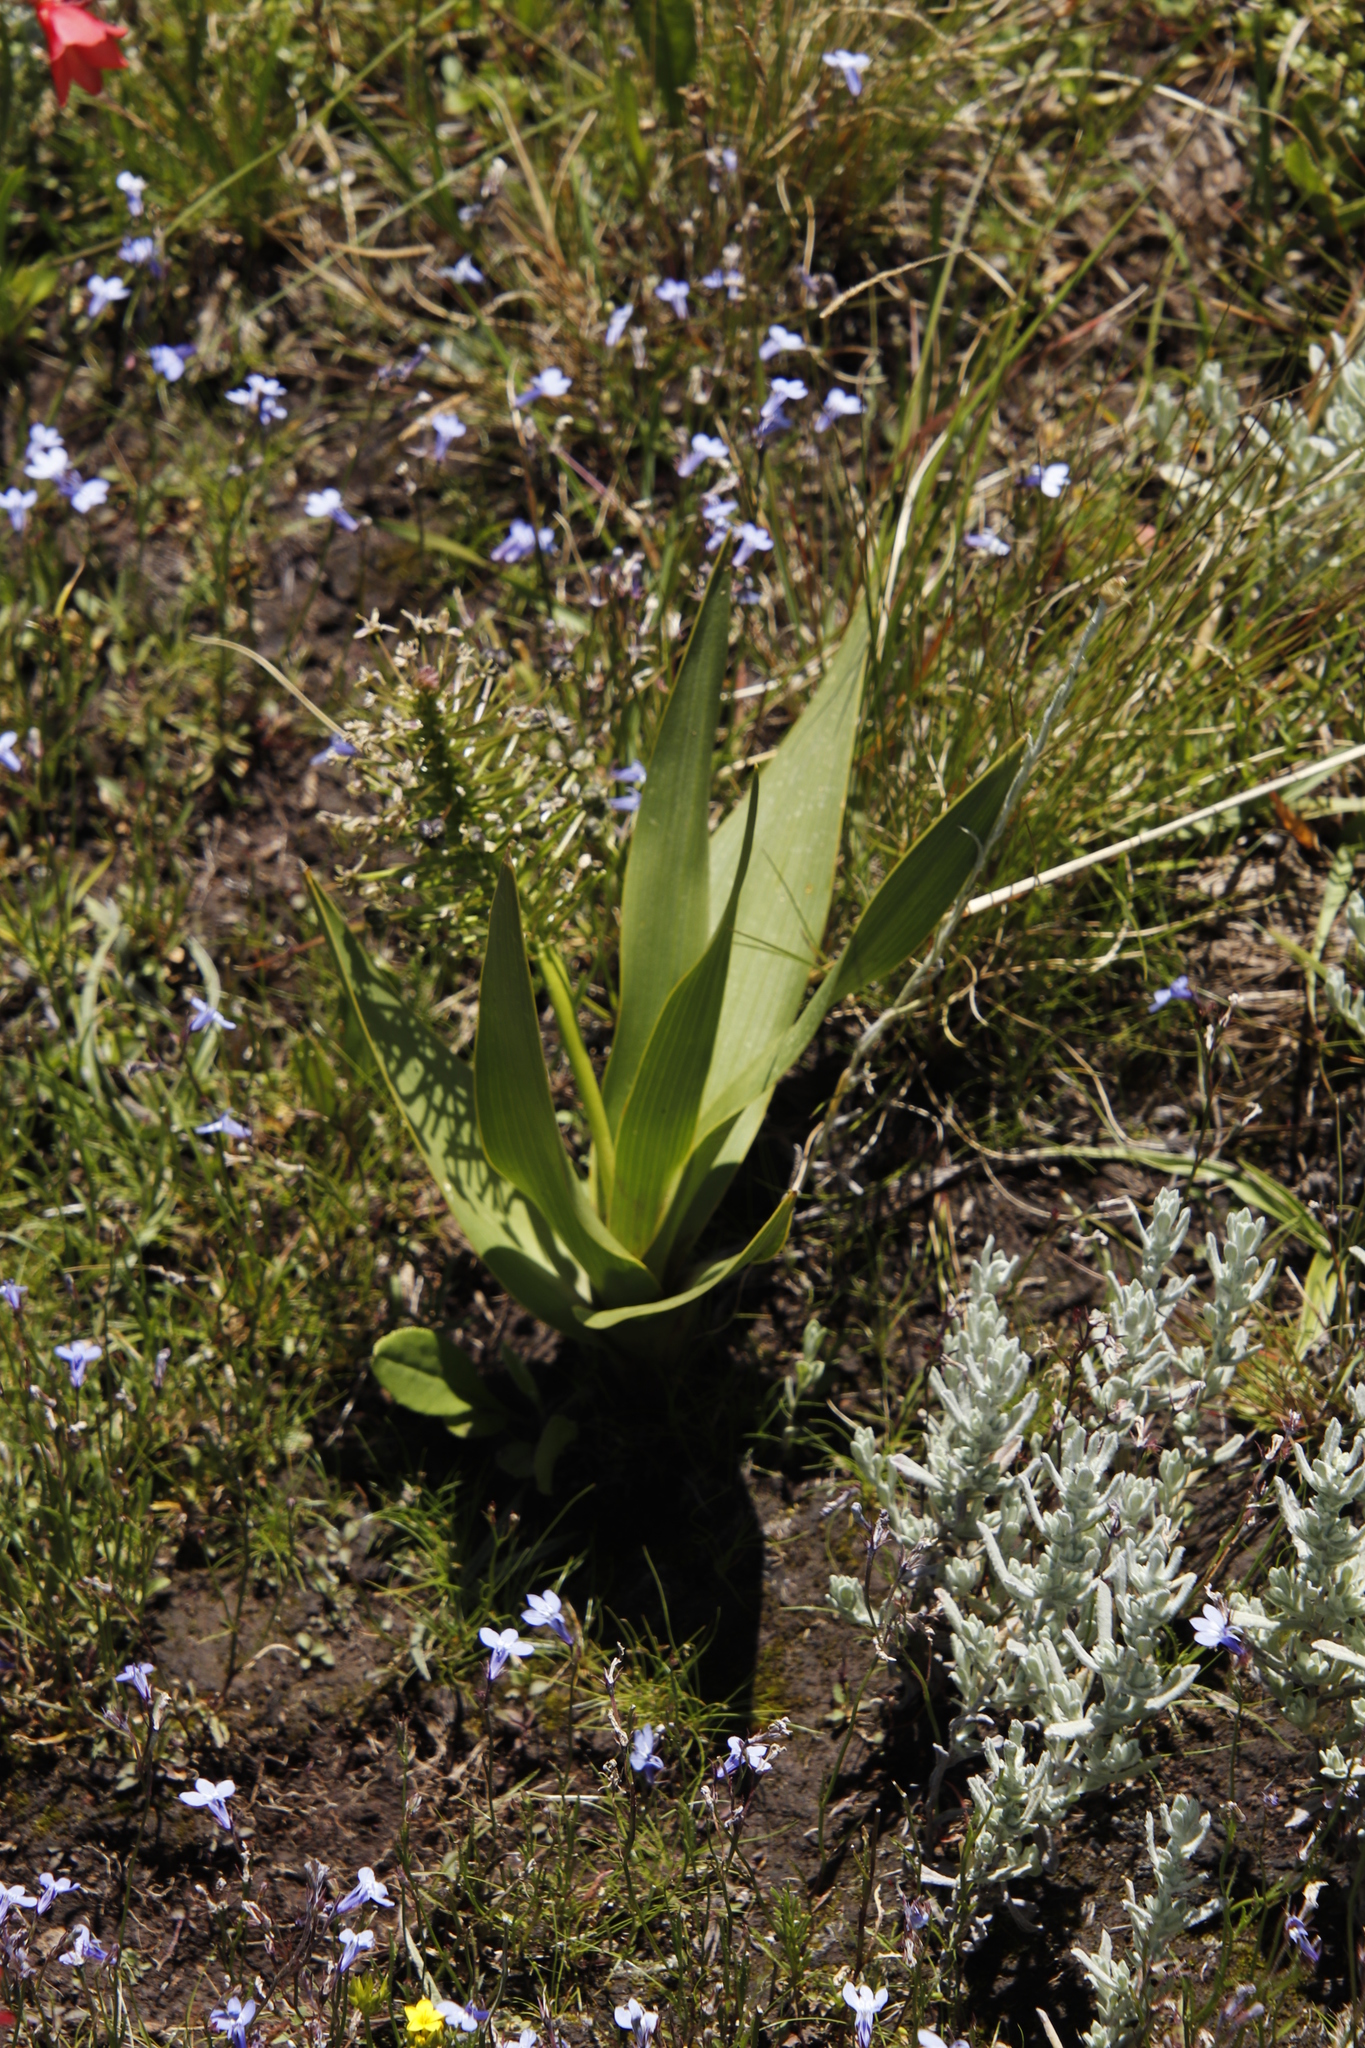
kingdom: Plantae
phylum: Tracheophyta
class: Liliopsida
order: Asparagales
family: Asparagaceae
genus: Schizocarphus
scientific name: Schizocarphus nervosus
